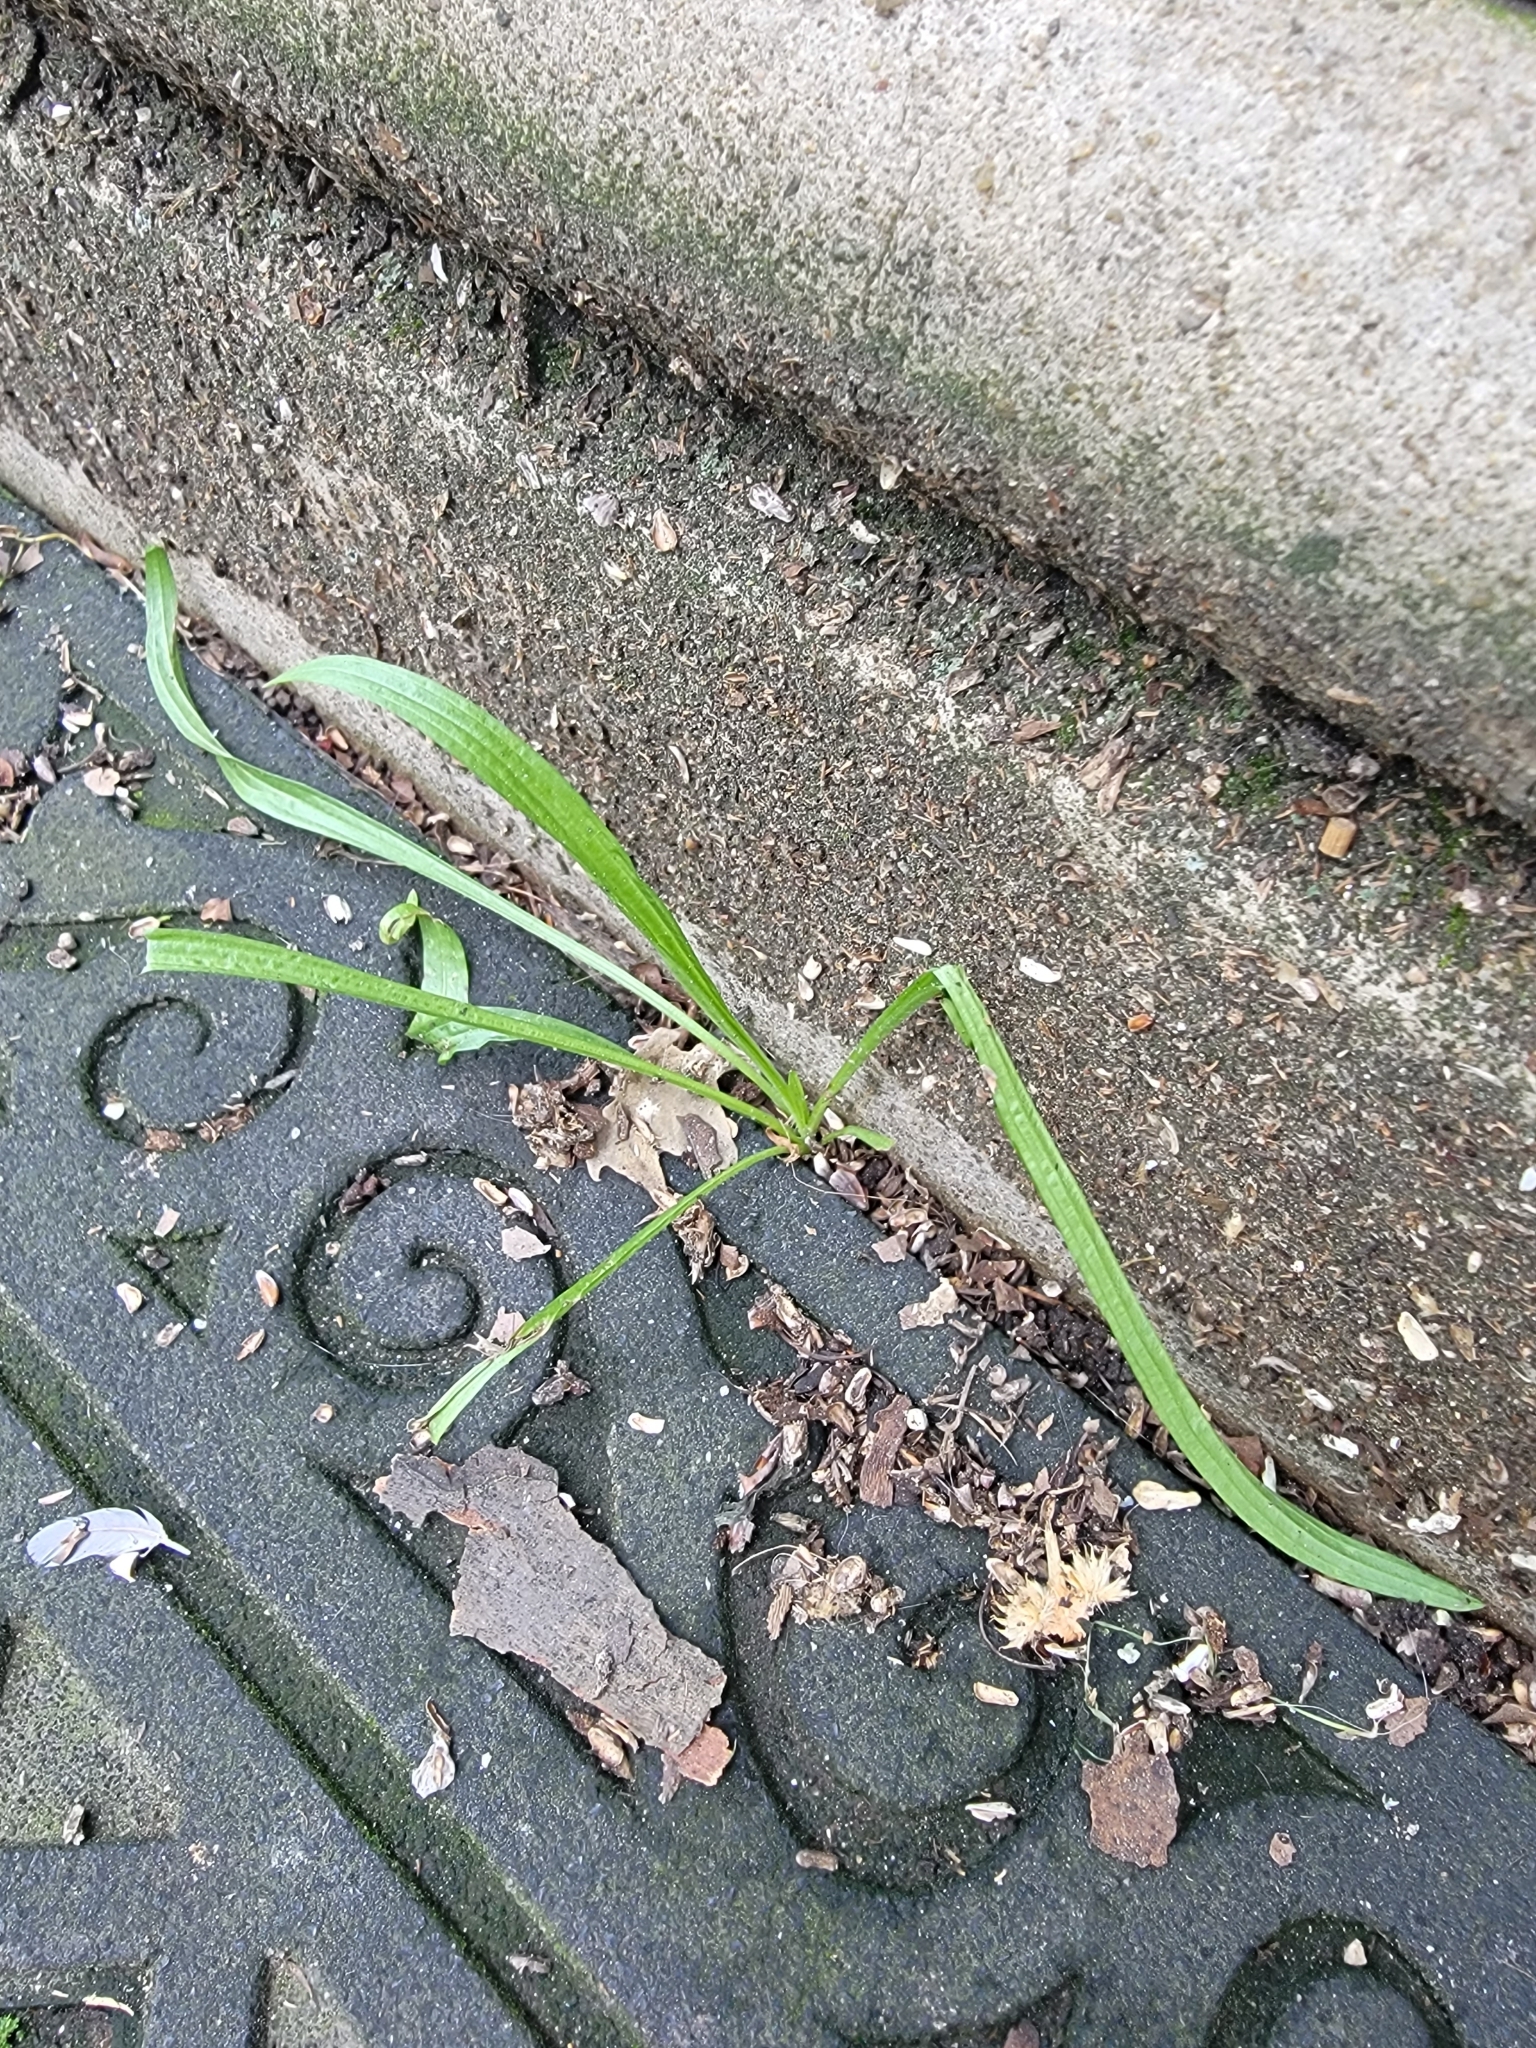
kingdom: Plantae
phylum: Tracheophyta
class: Magnoliopsida
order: Lamiales
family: Plantaginaceae
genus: Plantago
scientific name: Plantago lanceolata
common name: Ribwort plantain
